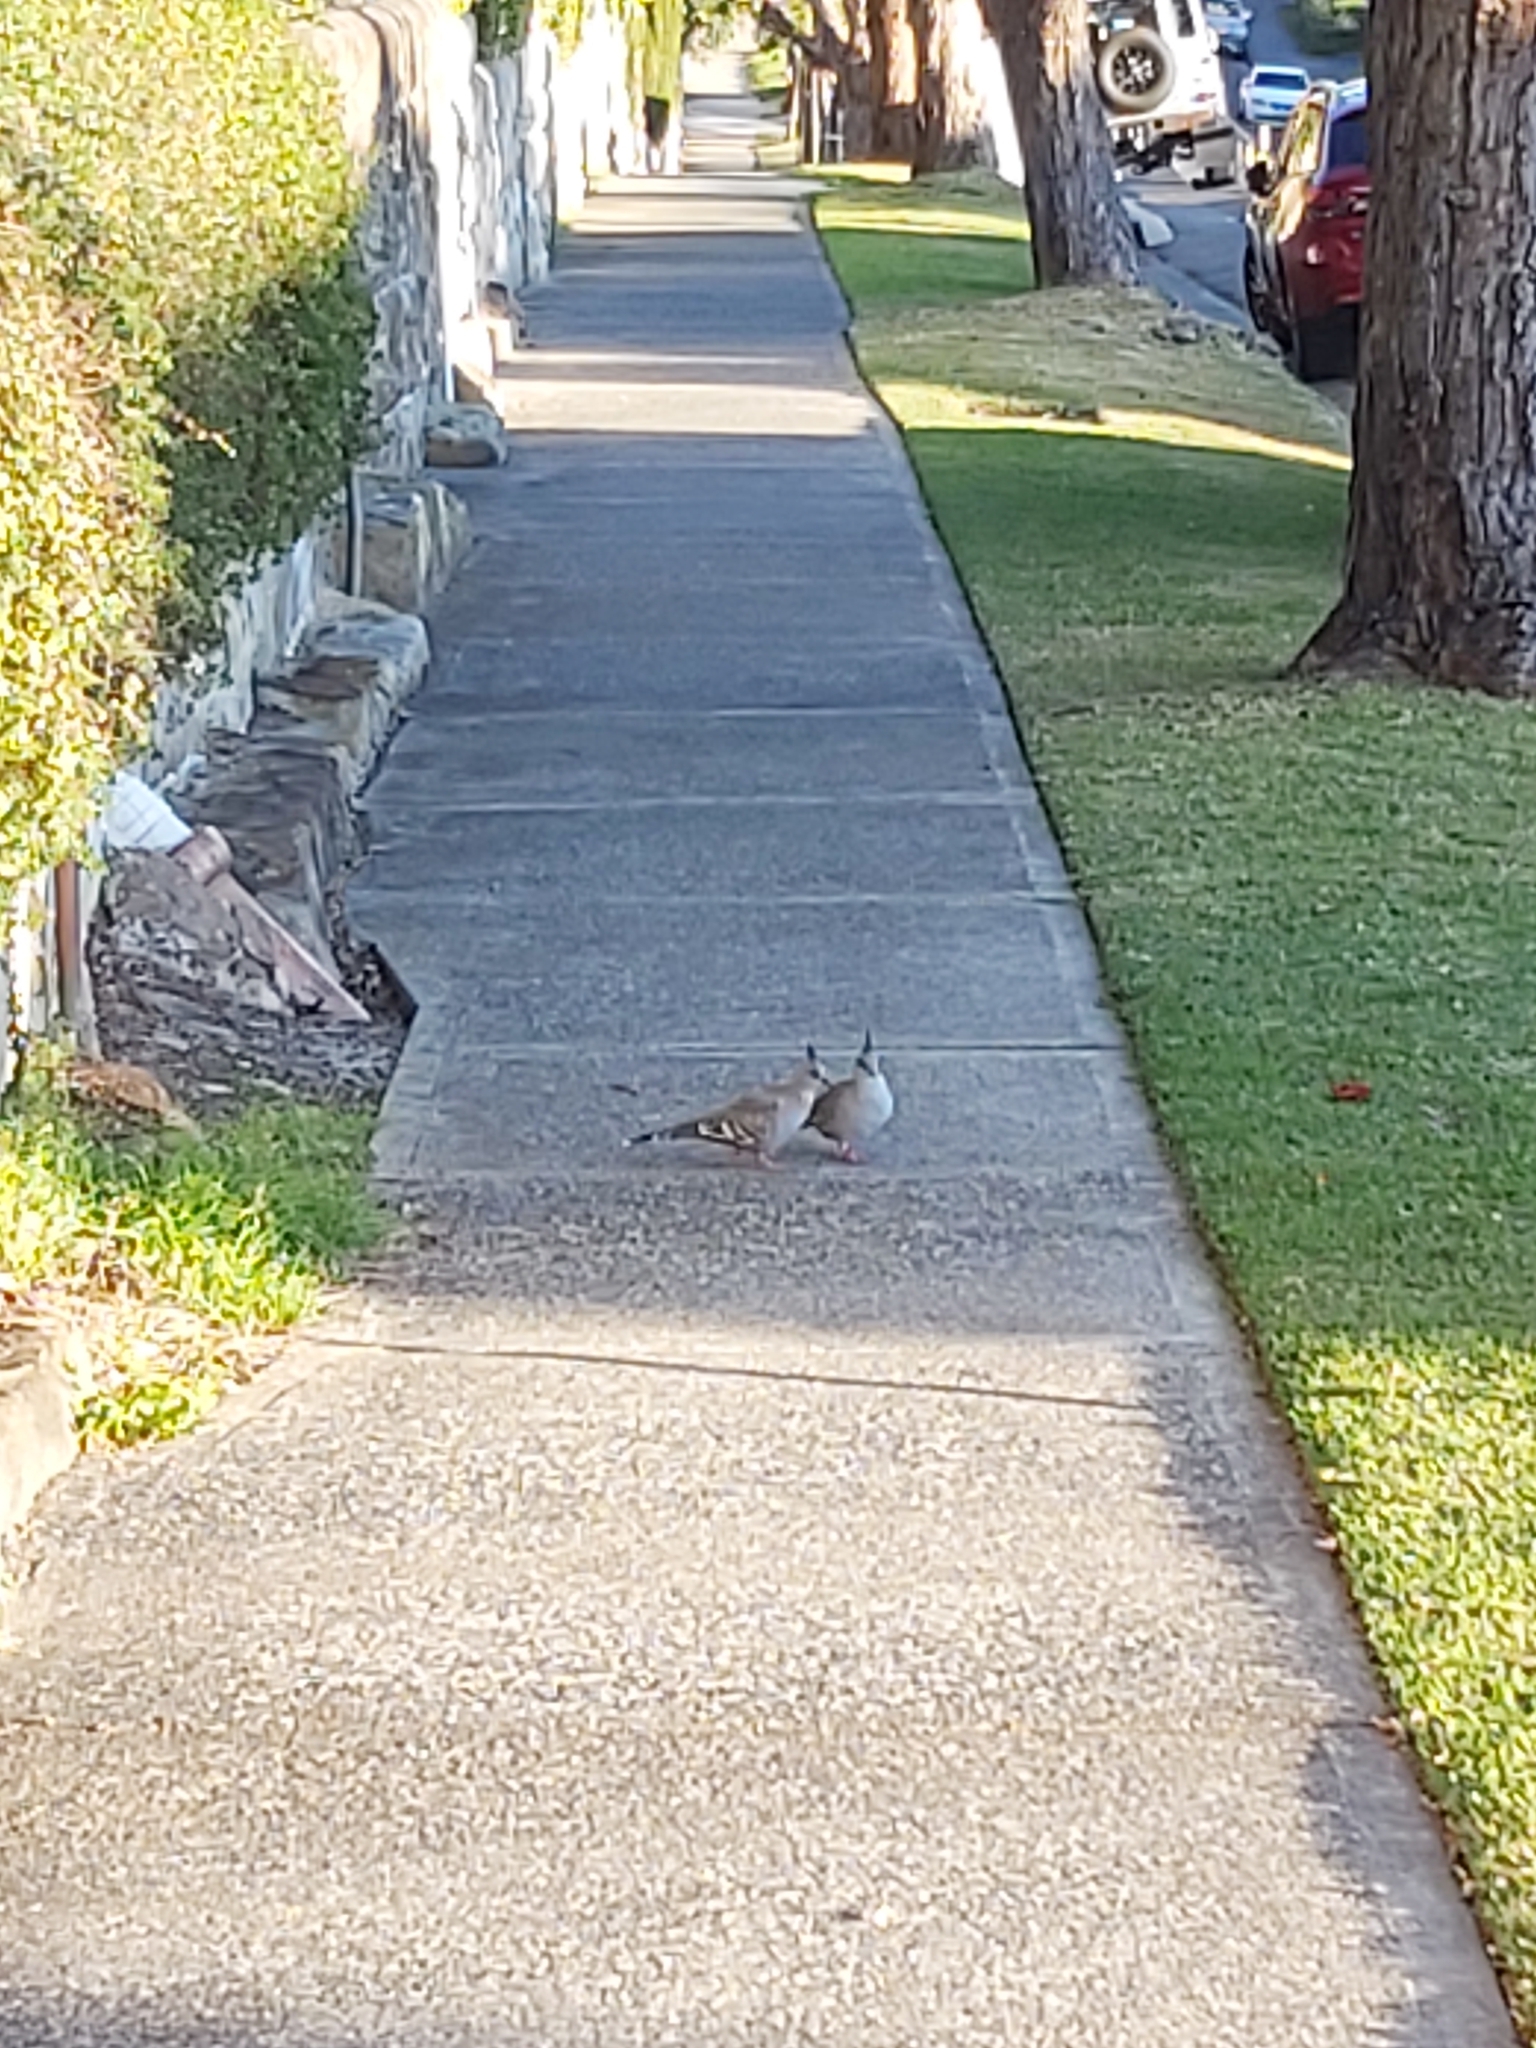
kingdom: Animalia
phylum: Chordata
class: Aves
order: Columbiformes
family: Columbidae
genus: Ocyphaps
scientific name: Ocyphaps lophotes
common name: Crested pigeon
